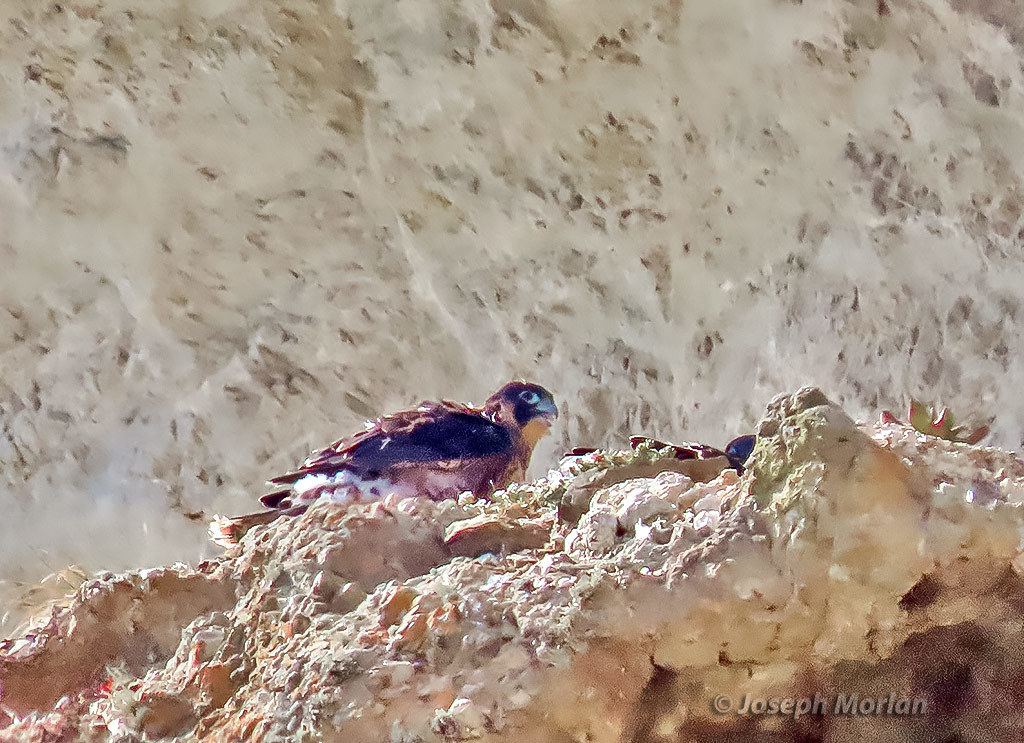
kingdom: Animalia
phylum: Chordata
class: Aves
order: Falconiformes
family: Falconidae
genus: Falco
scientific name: Falco peregrinus
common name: Peregrine falcon
